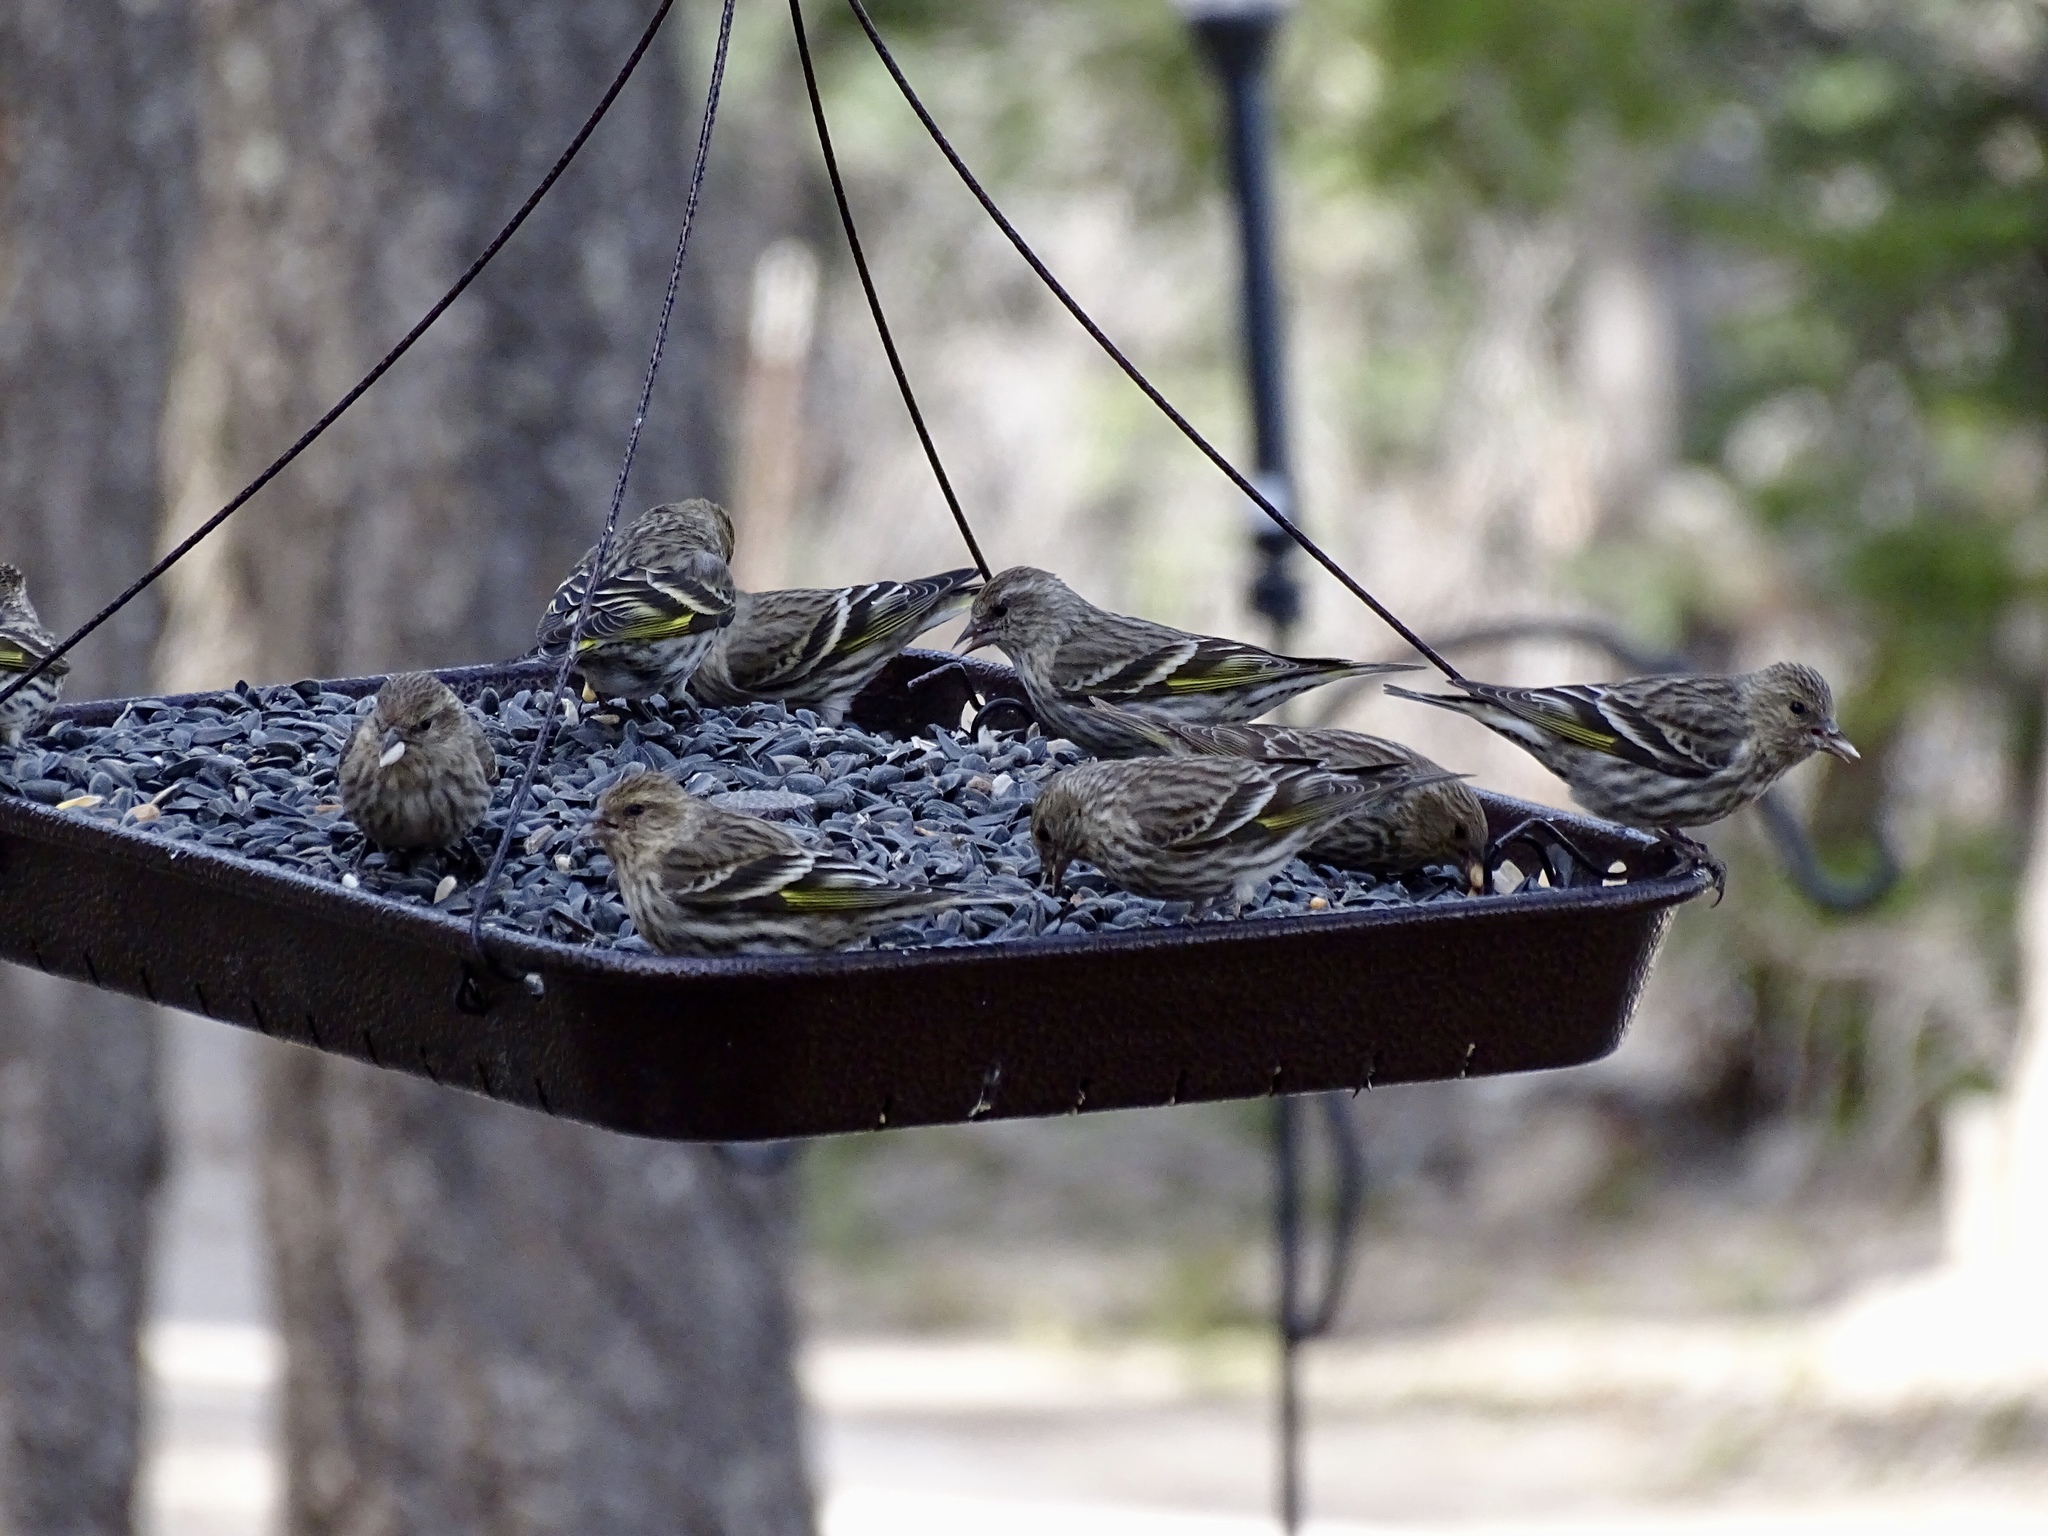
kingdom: Animalia
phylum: Chordata
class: Aves
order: Passeriformes
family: Fringillidae
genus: Spinus
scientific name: Spinus pinus
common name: Pine siskin
